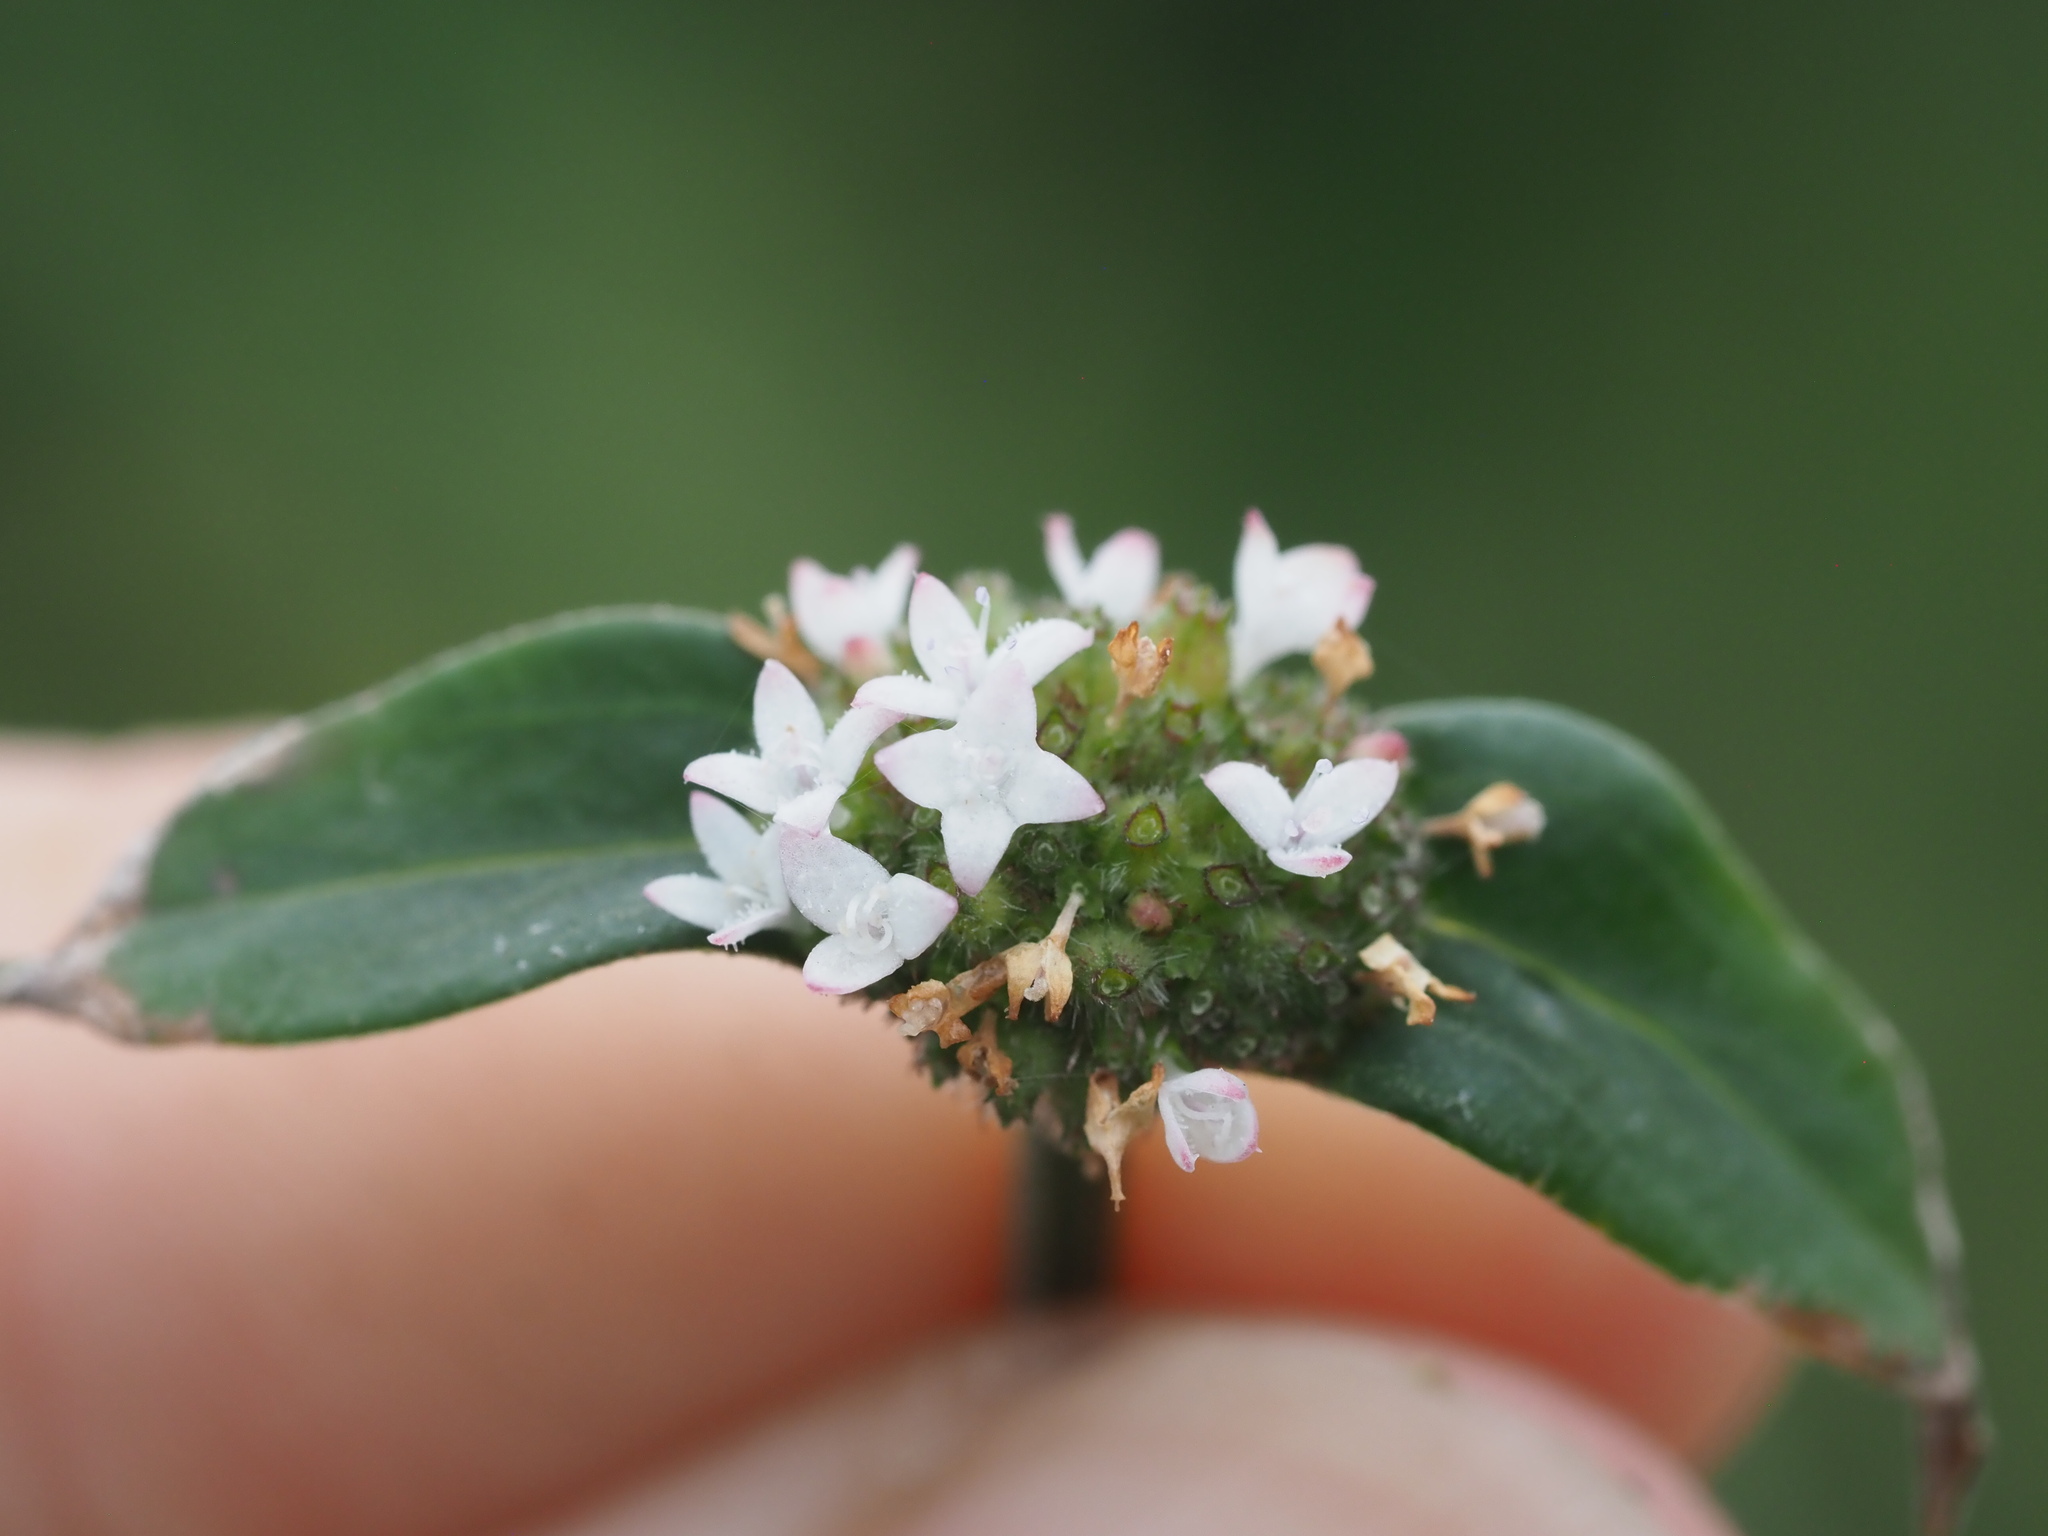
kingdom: Plantae
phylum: Tracheophyta
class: Magnoliopsida
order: Gentianales
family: Rubiaceae
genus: Spermacoce
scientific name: Spermacoce remota
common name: Woodland false buttonweed
